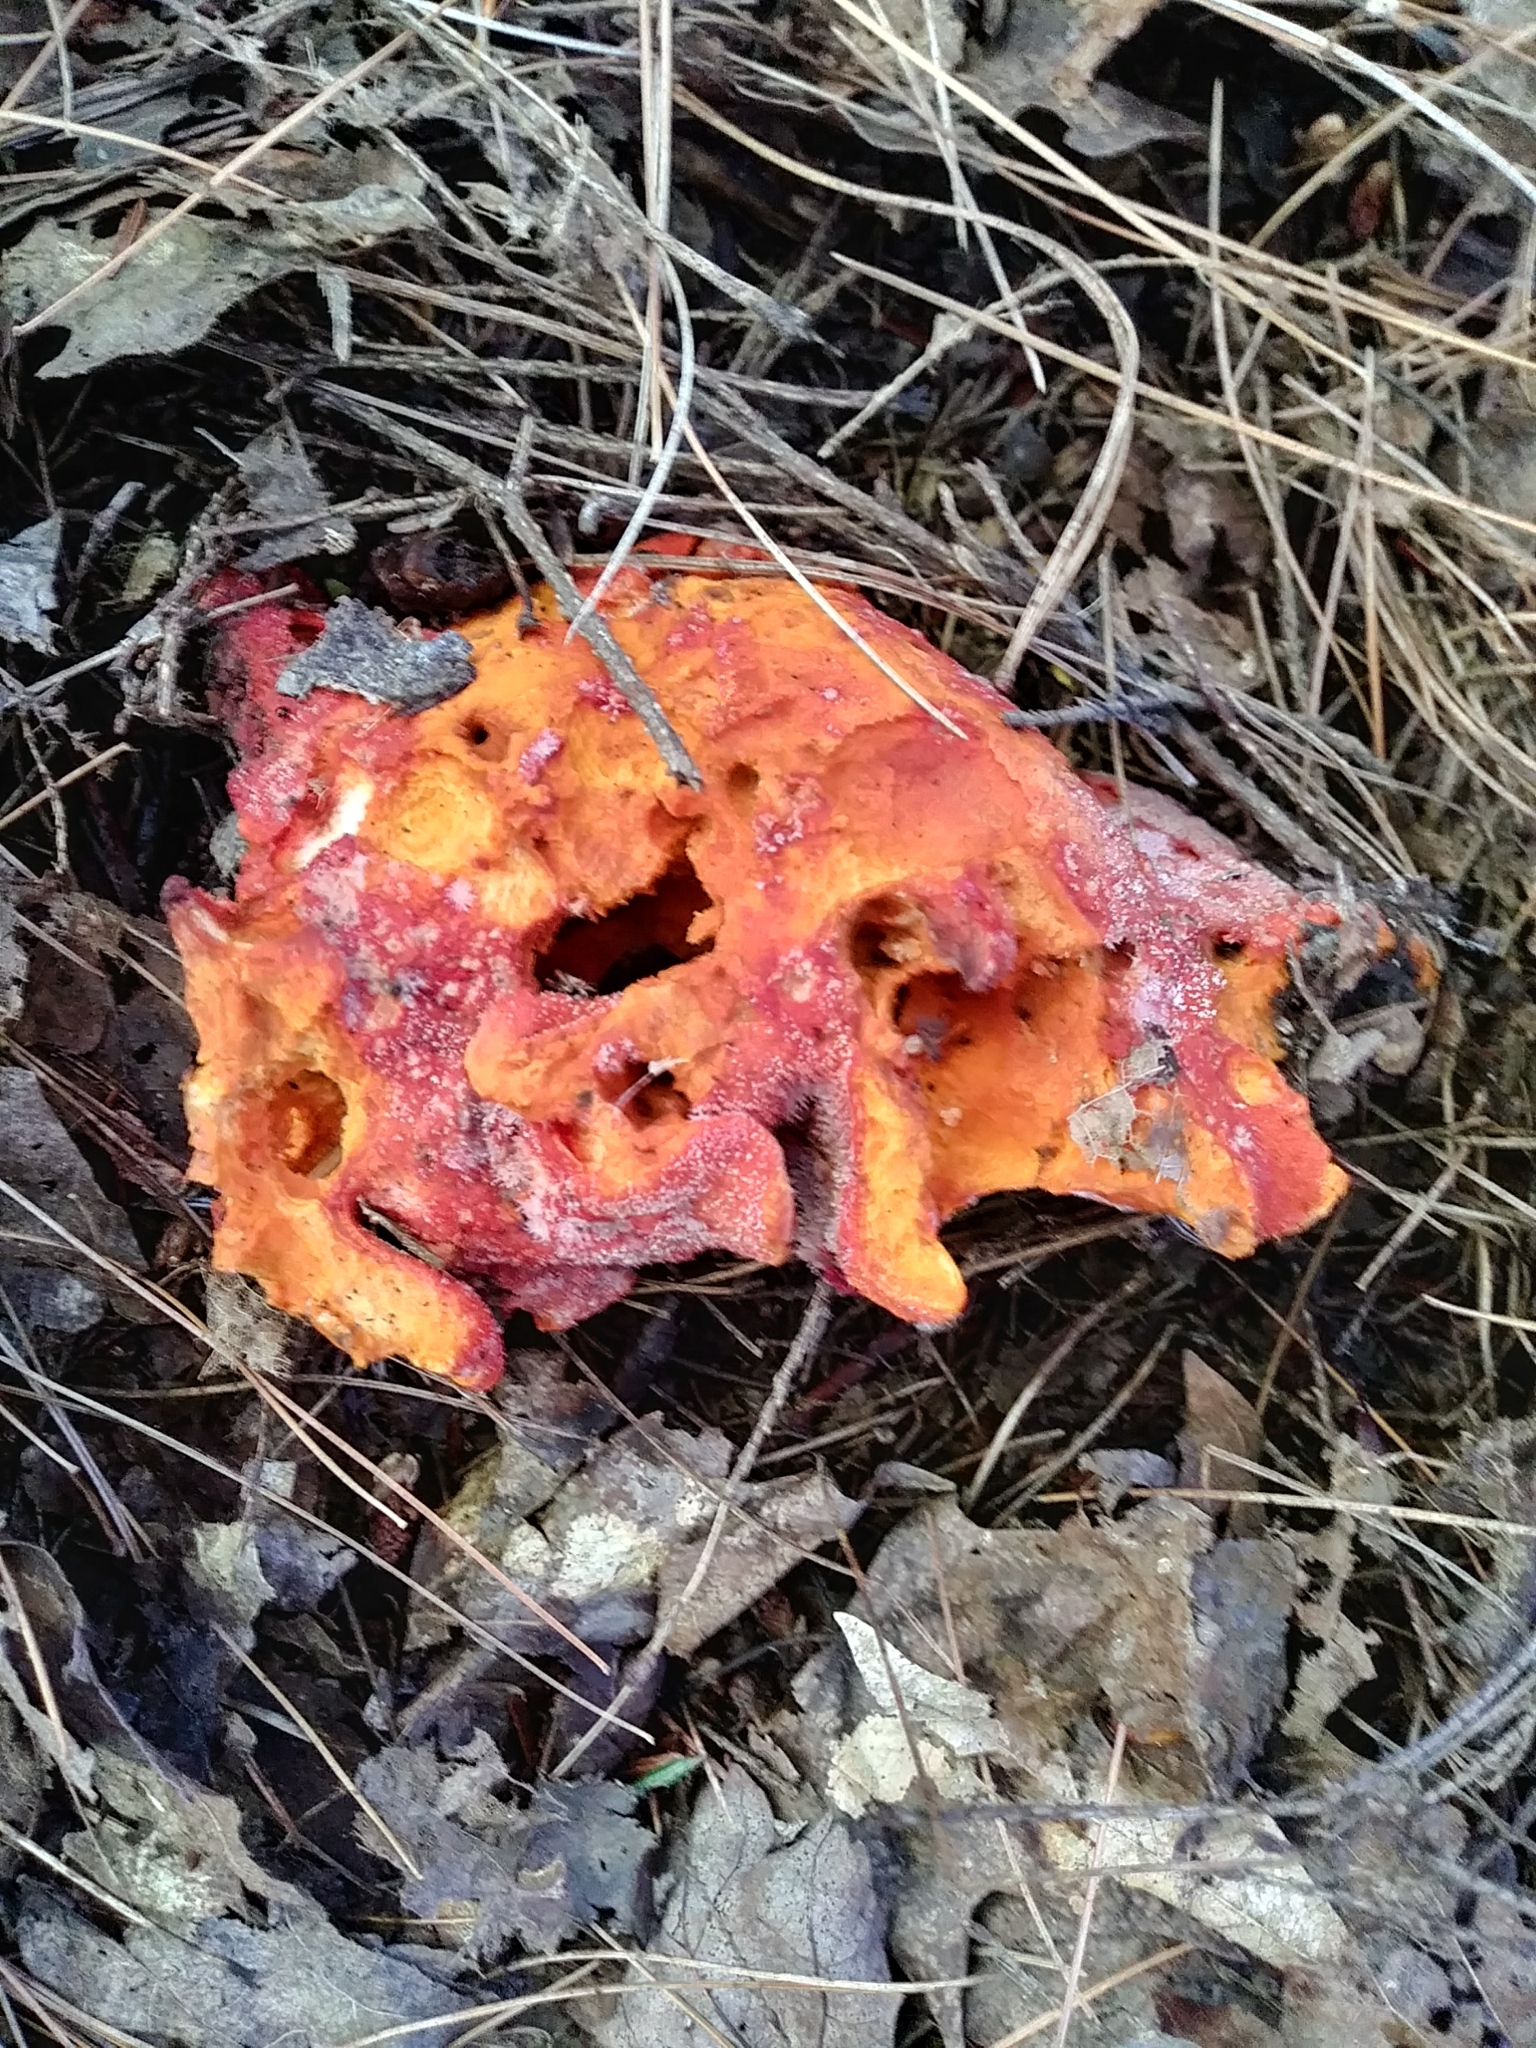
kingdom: Fungi
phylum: Ascomycota
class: Sordariomycetes
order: Hypocreales
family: Hypocreaceae
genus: Hypomyces
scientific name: Hypomyces lactifluorum
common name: Lobster mushroom
